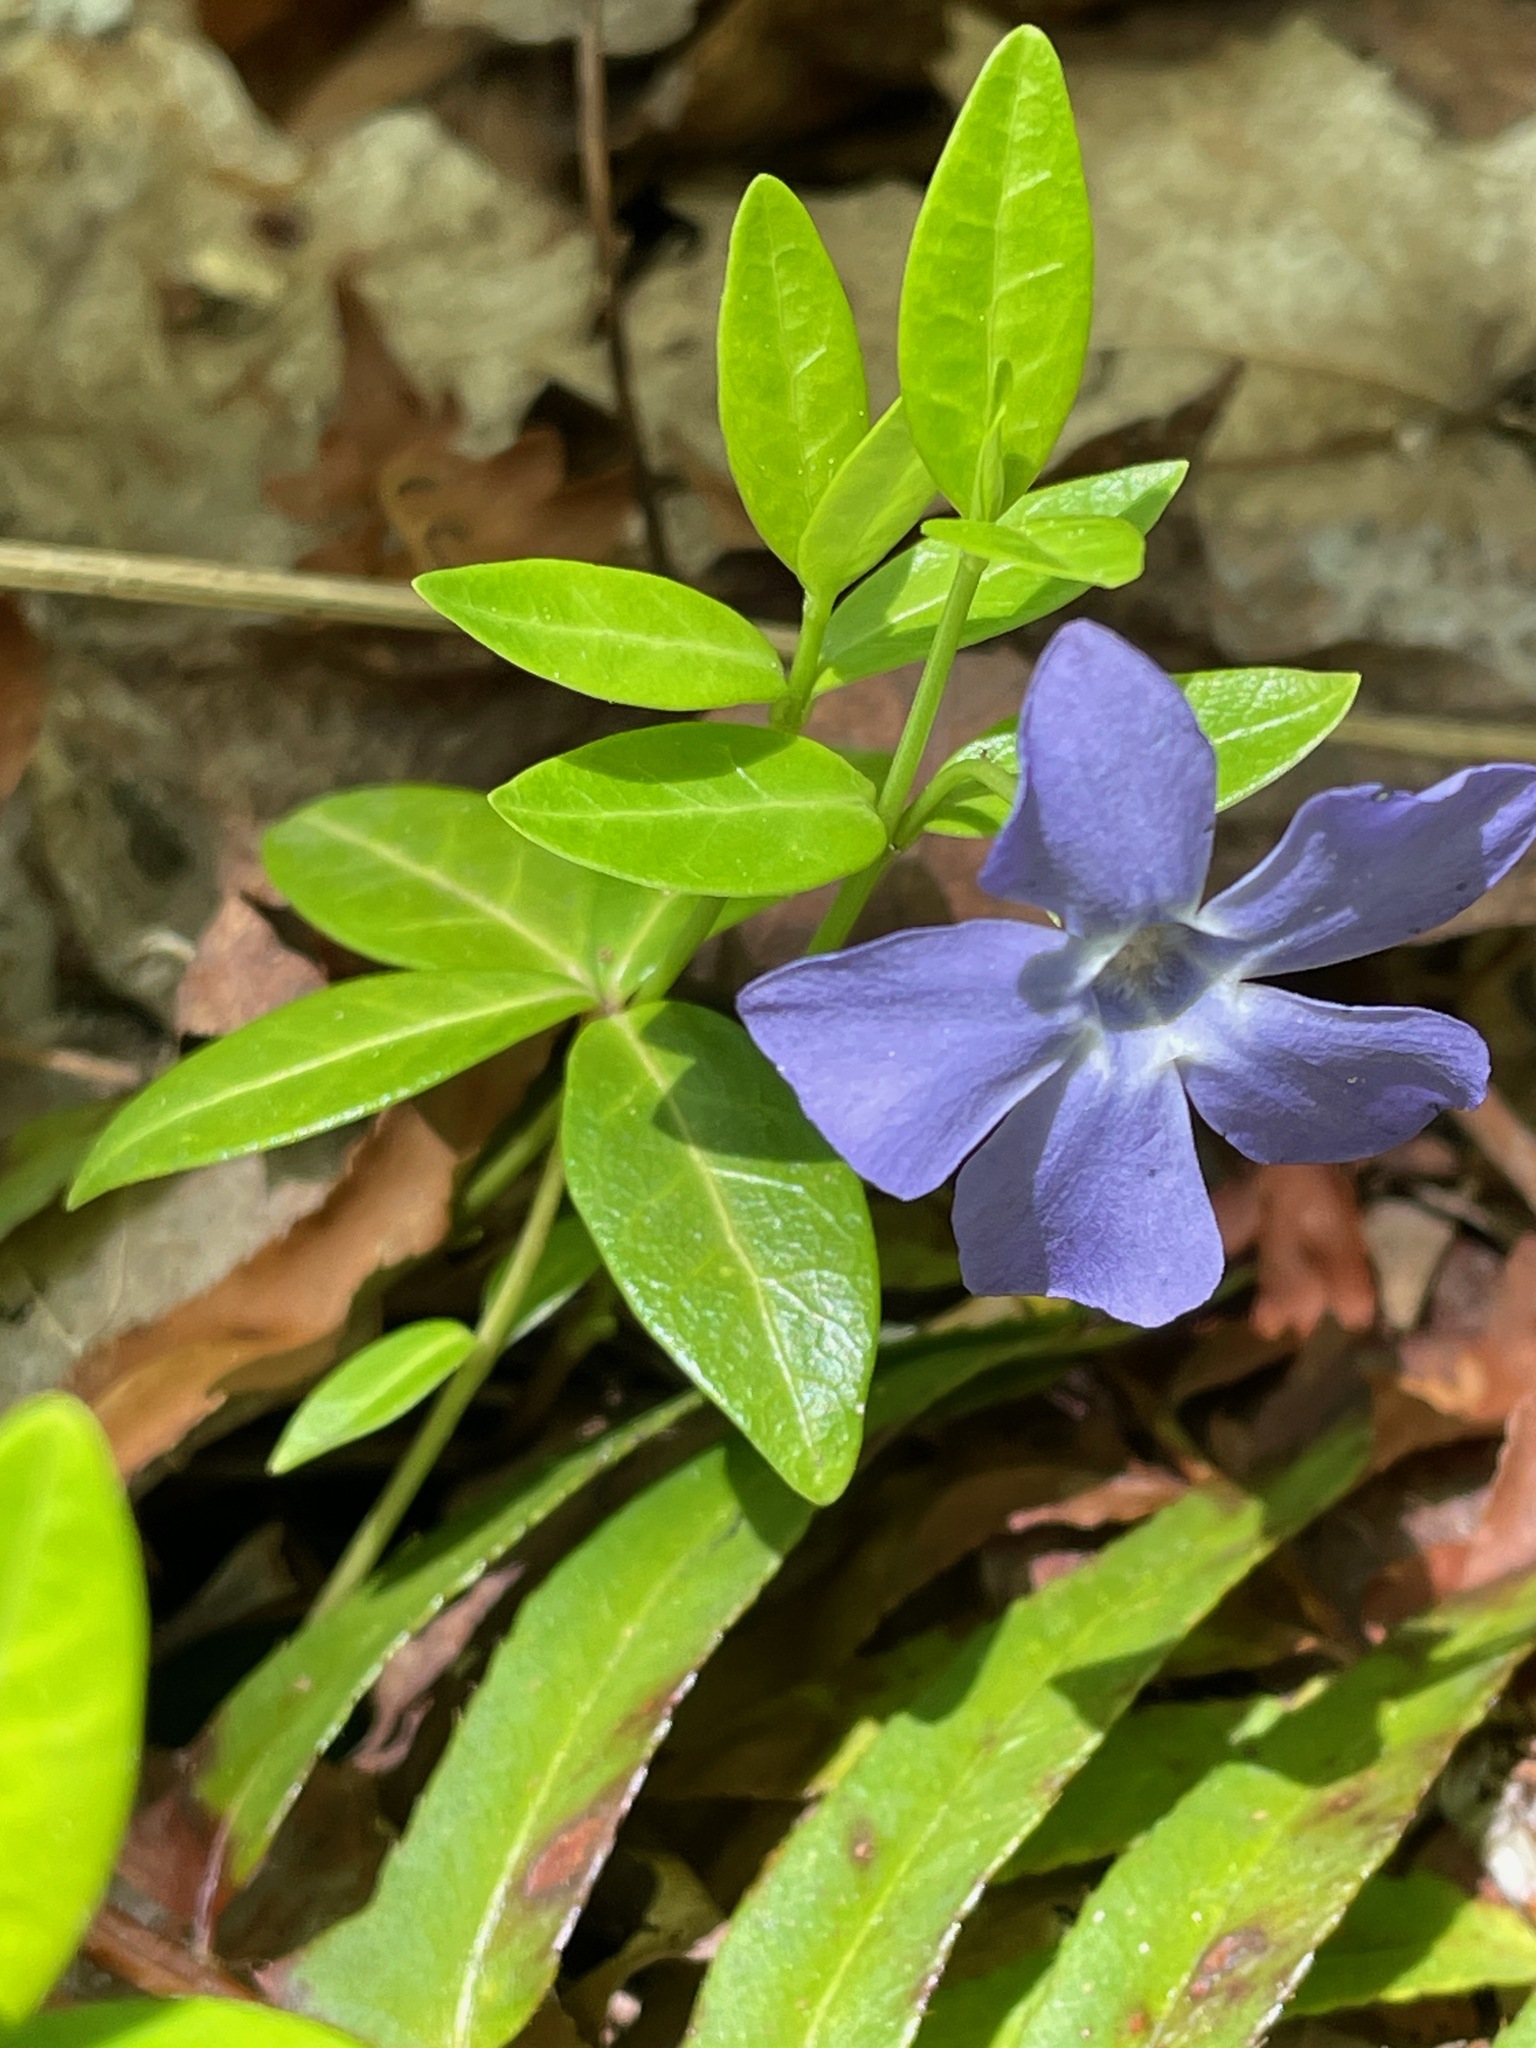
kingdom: Plantae
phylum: Tracheophyta
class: Magnoliopsida
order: Gentianales
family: Apocynaceae
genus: Vinca
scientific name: Vinca minor
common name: Lesser periwinkle
